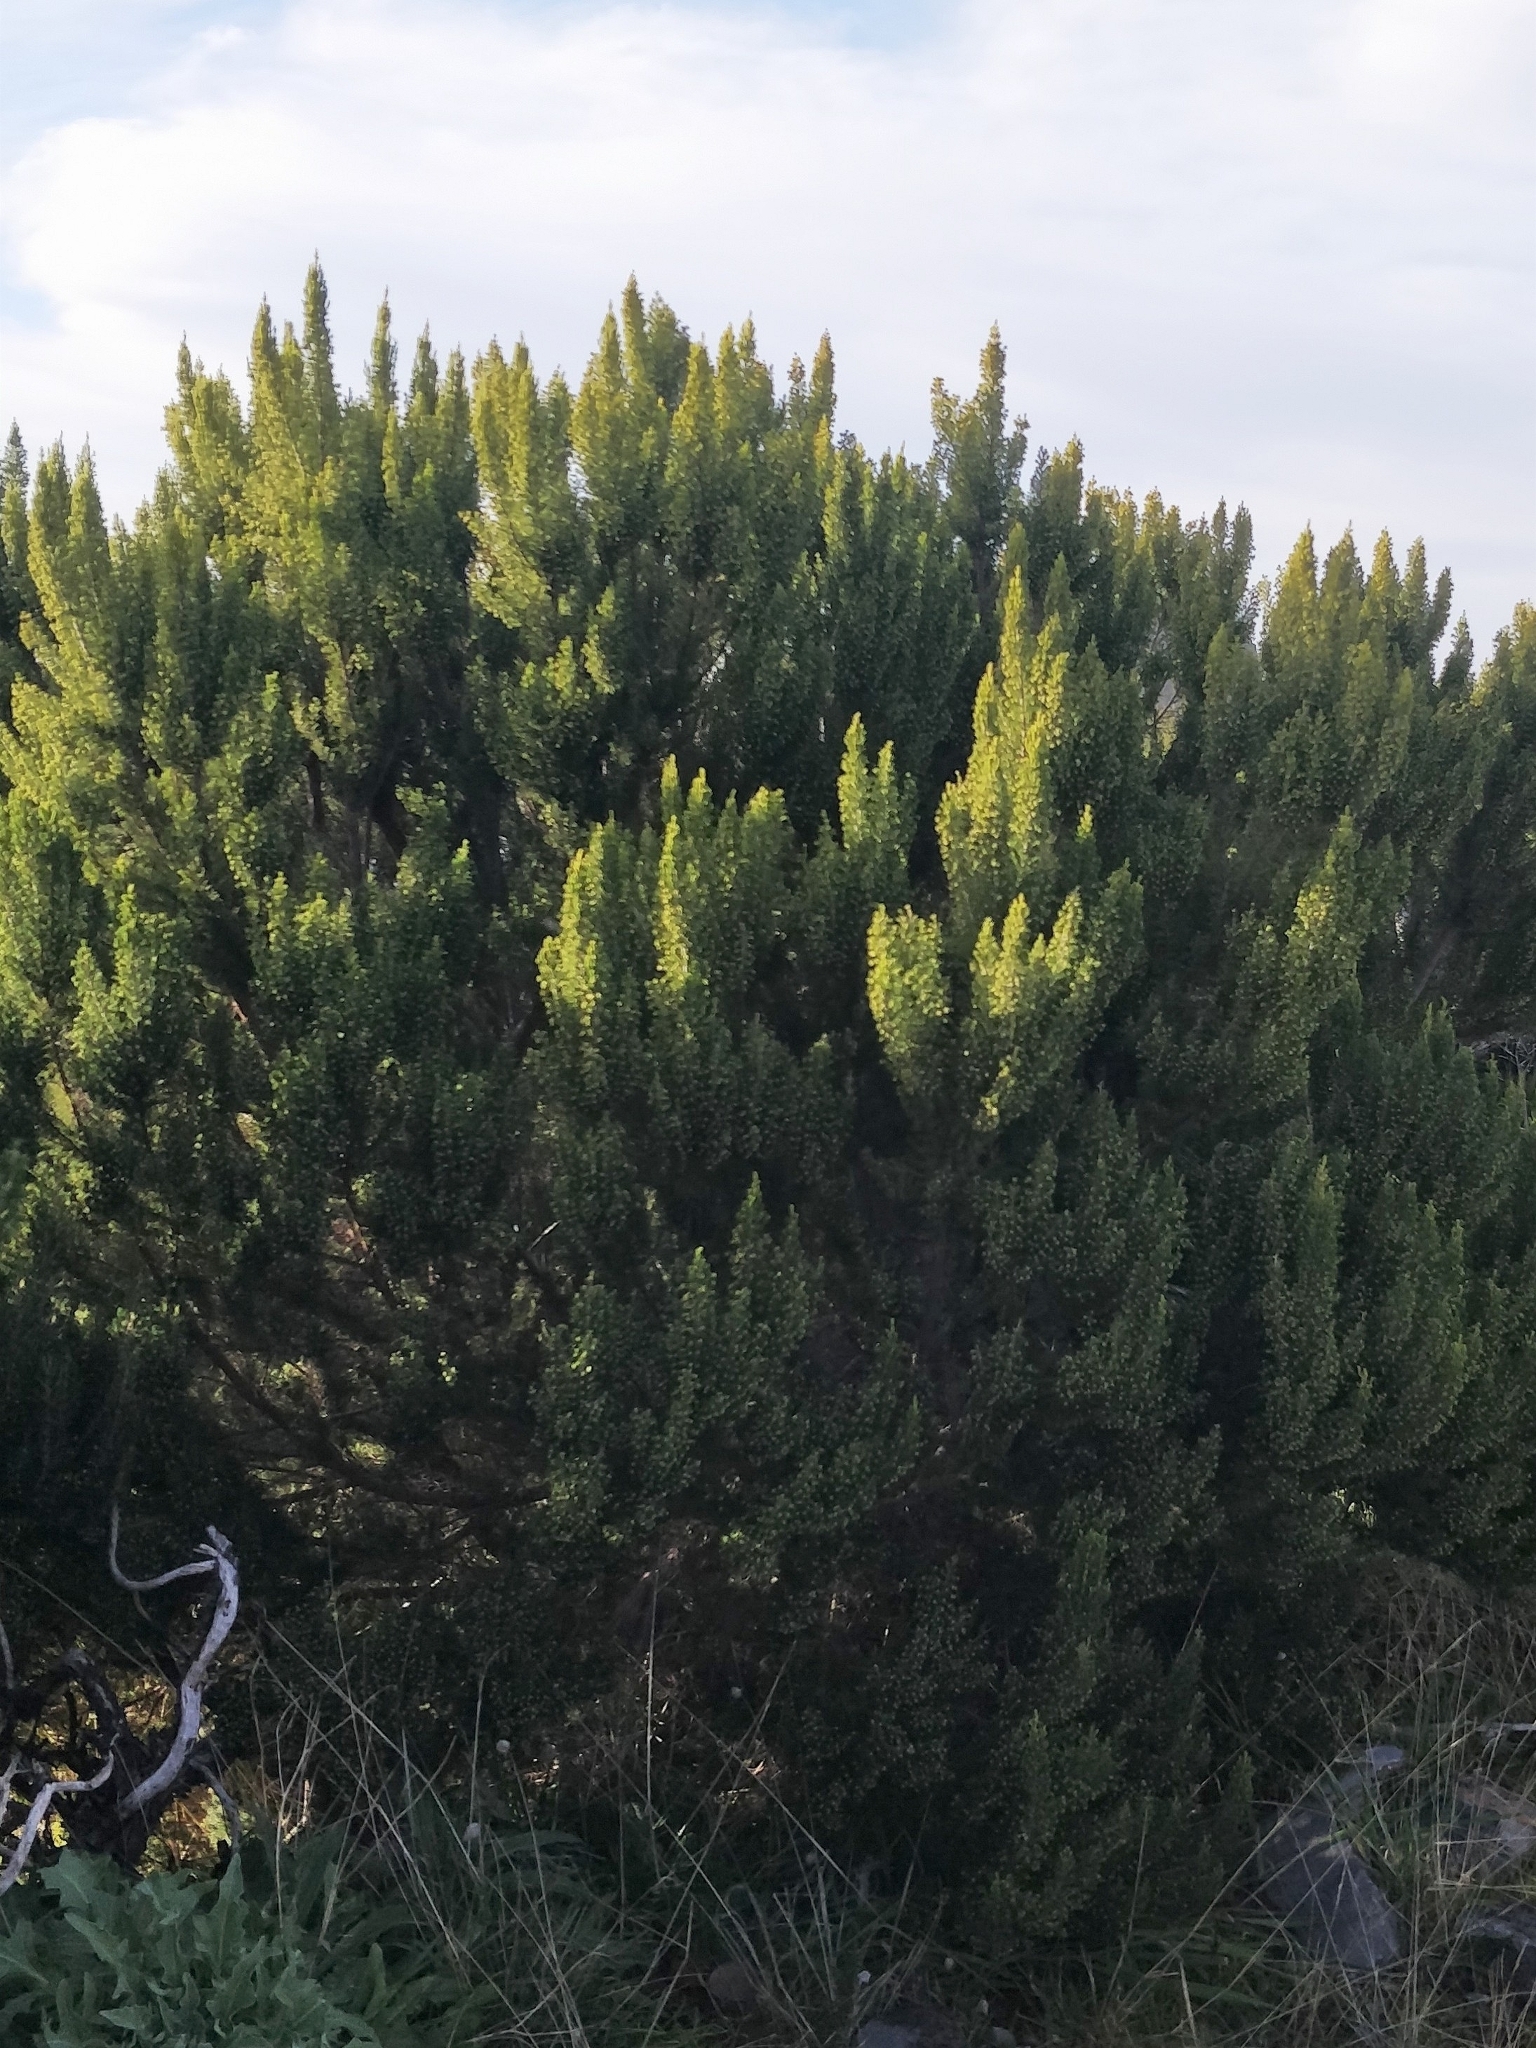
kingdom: Plantae
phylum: Tracheophyta
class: Magnoliopsida
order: Ericales
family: Ericaceae
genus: Erica
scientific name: Erica canariensis
